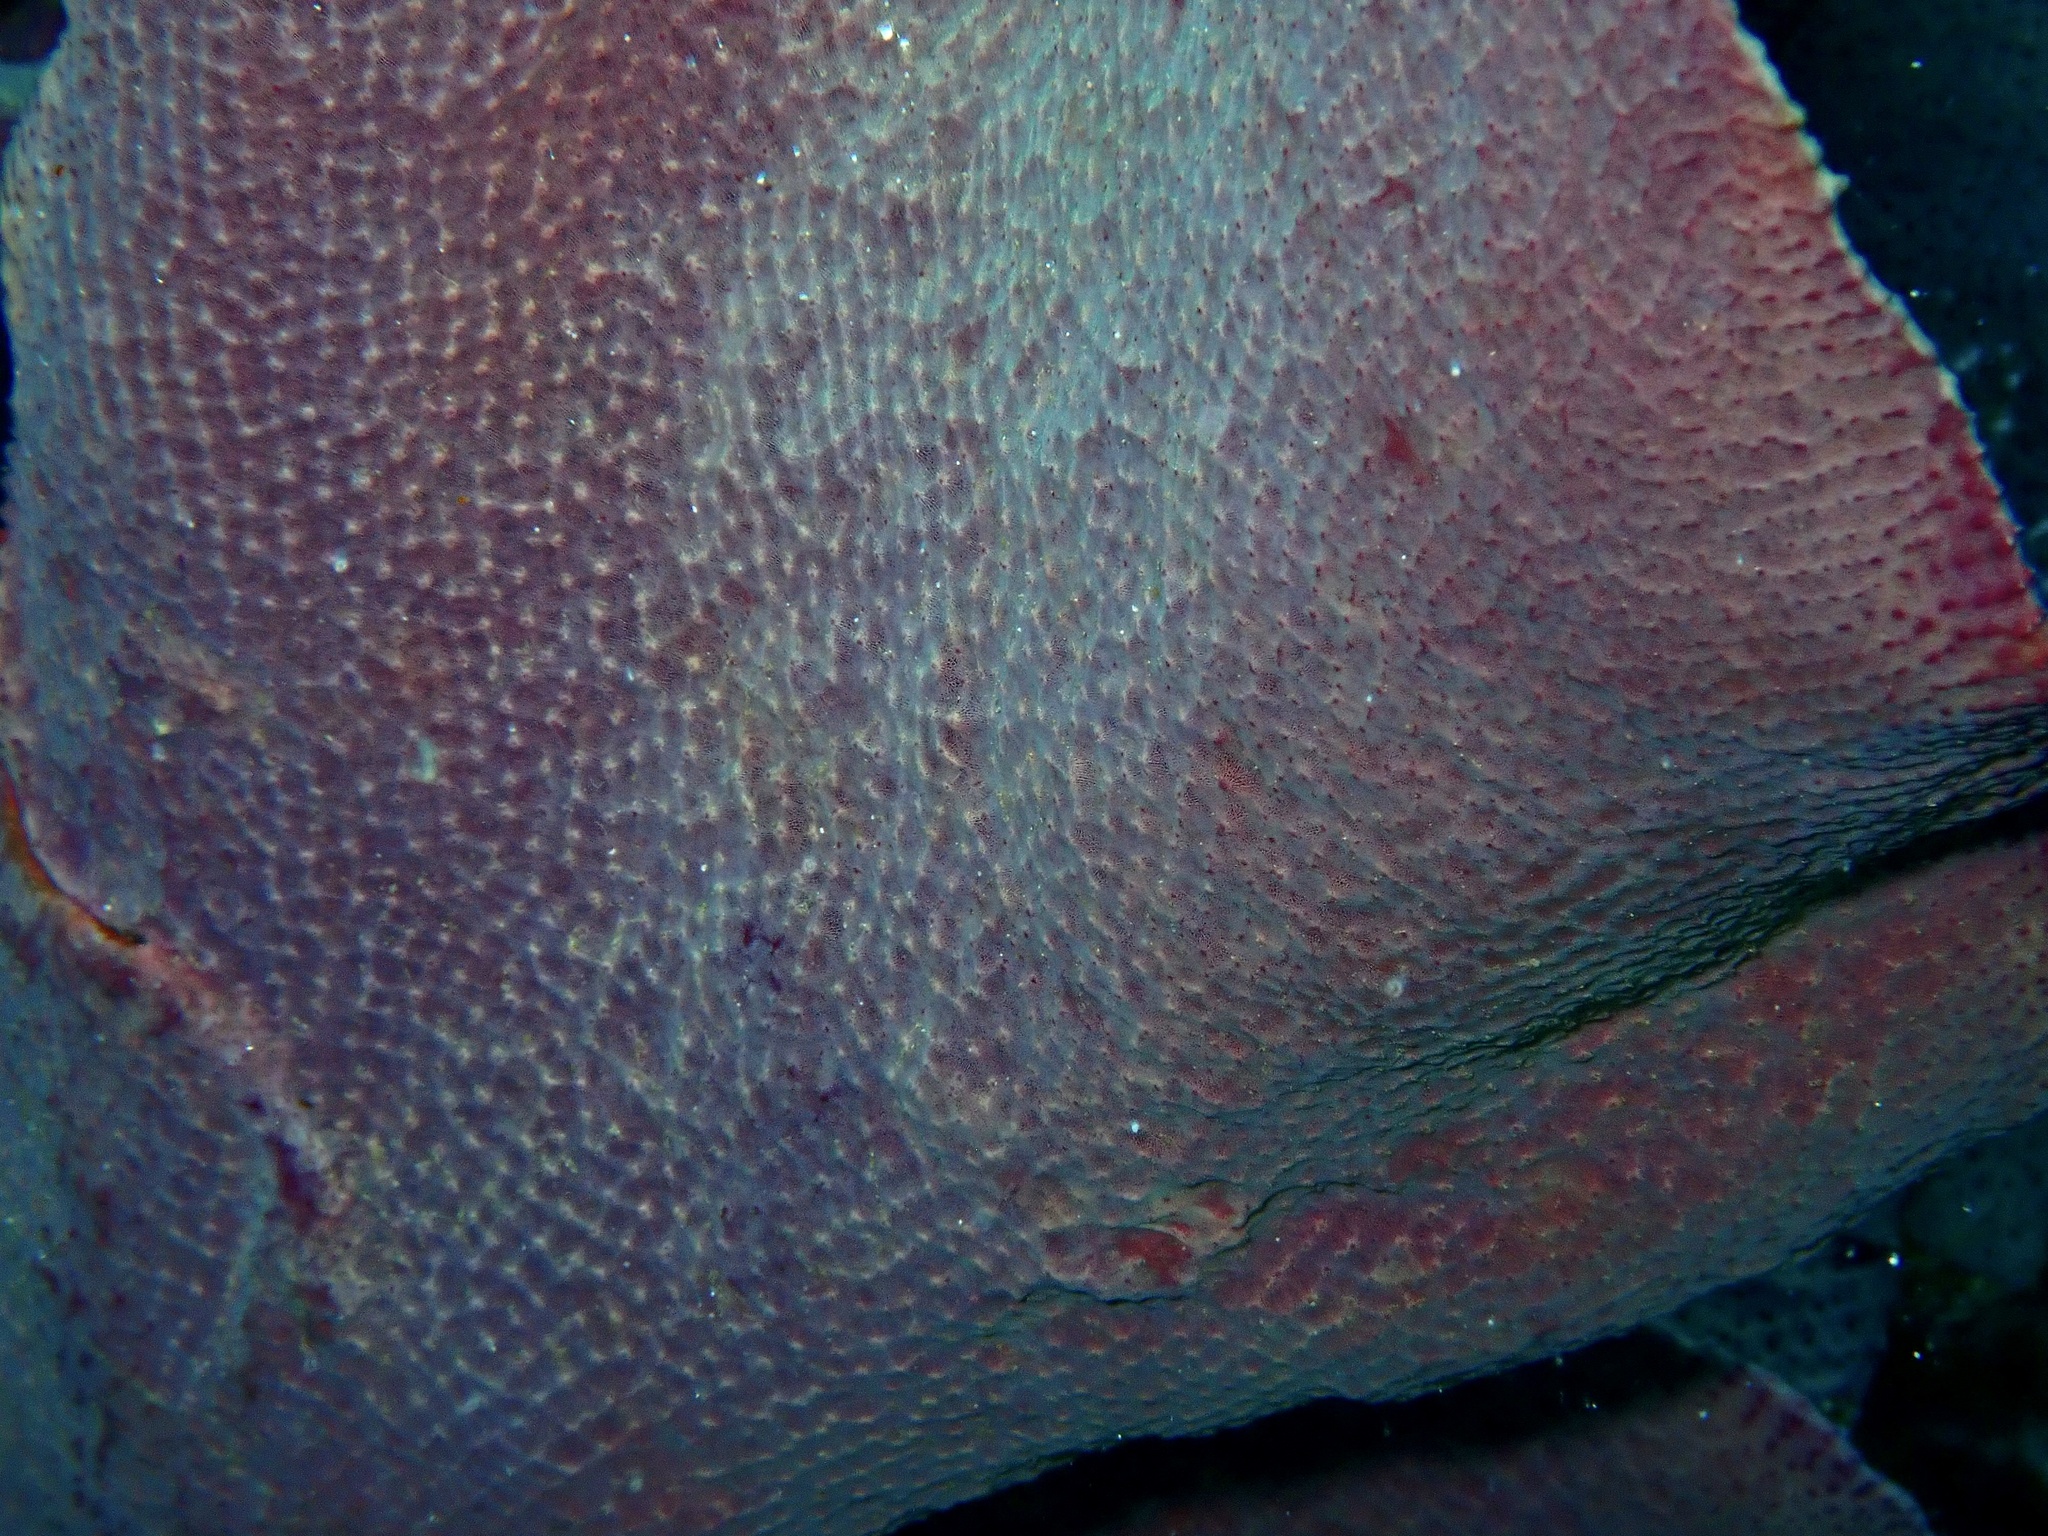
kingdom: Animalia
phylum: Porifera
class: Demospongiae
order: Verongiida
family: Ianthellidae
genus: Ianthella
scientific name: Ianthella basta
